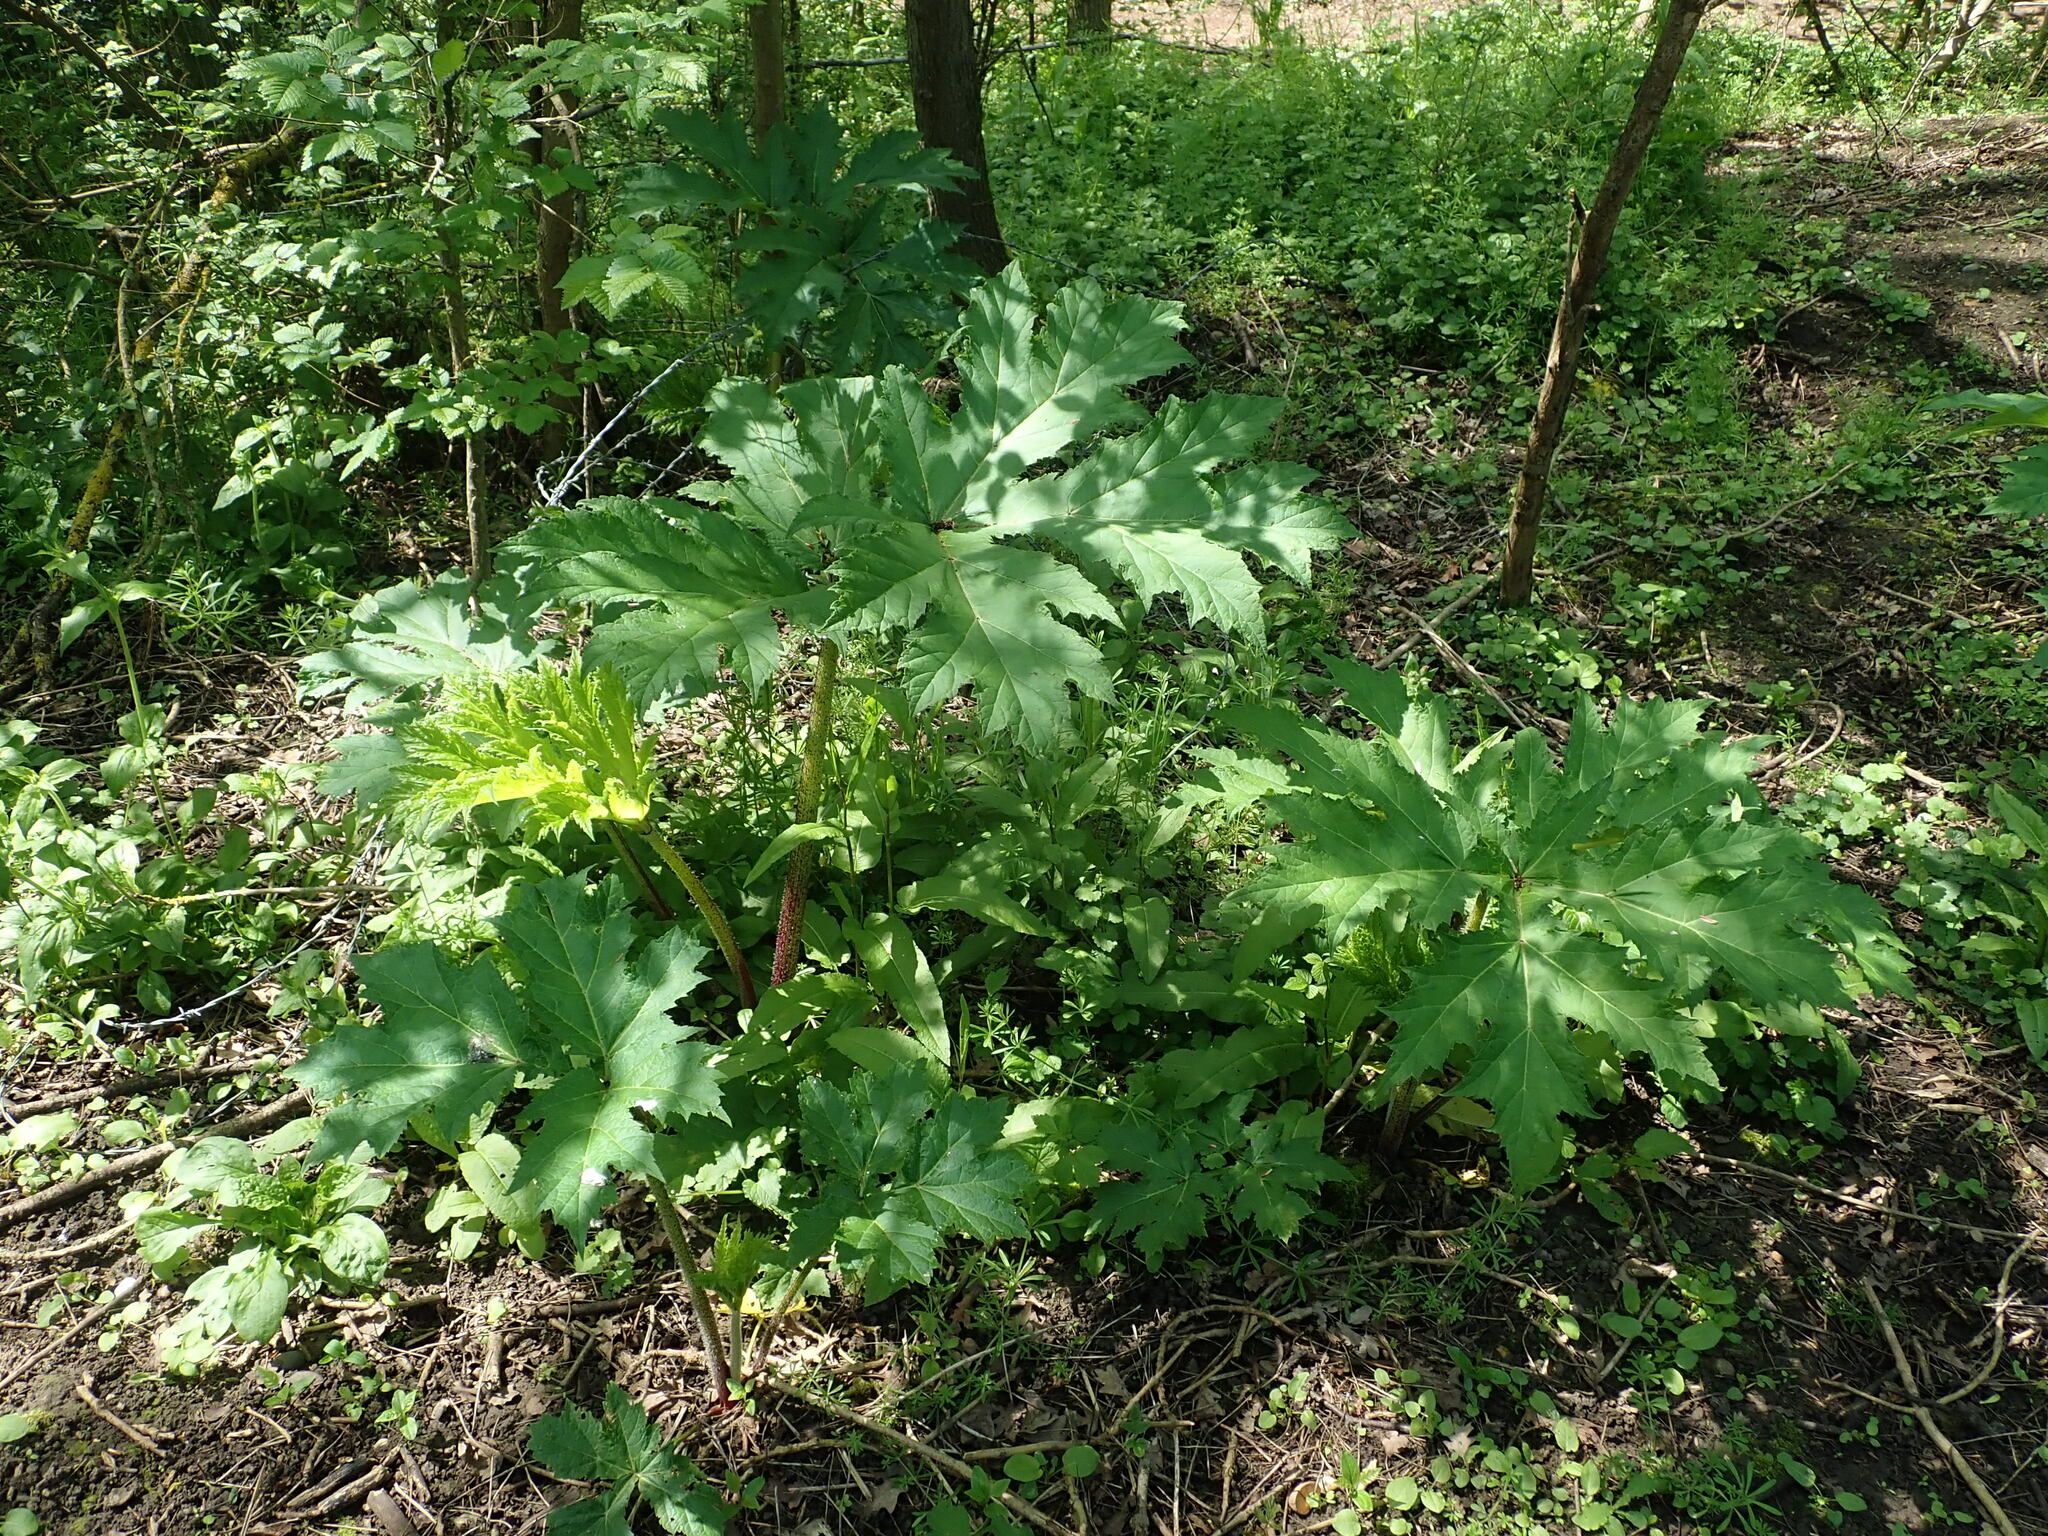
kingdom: Plantae
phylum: Tracheophyta
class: Magnoliopsida
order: Apiales
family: Apiaceae
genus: Heracleum
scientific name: Heracleum mantegazzianum
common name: Giant hogweed
